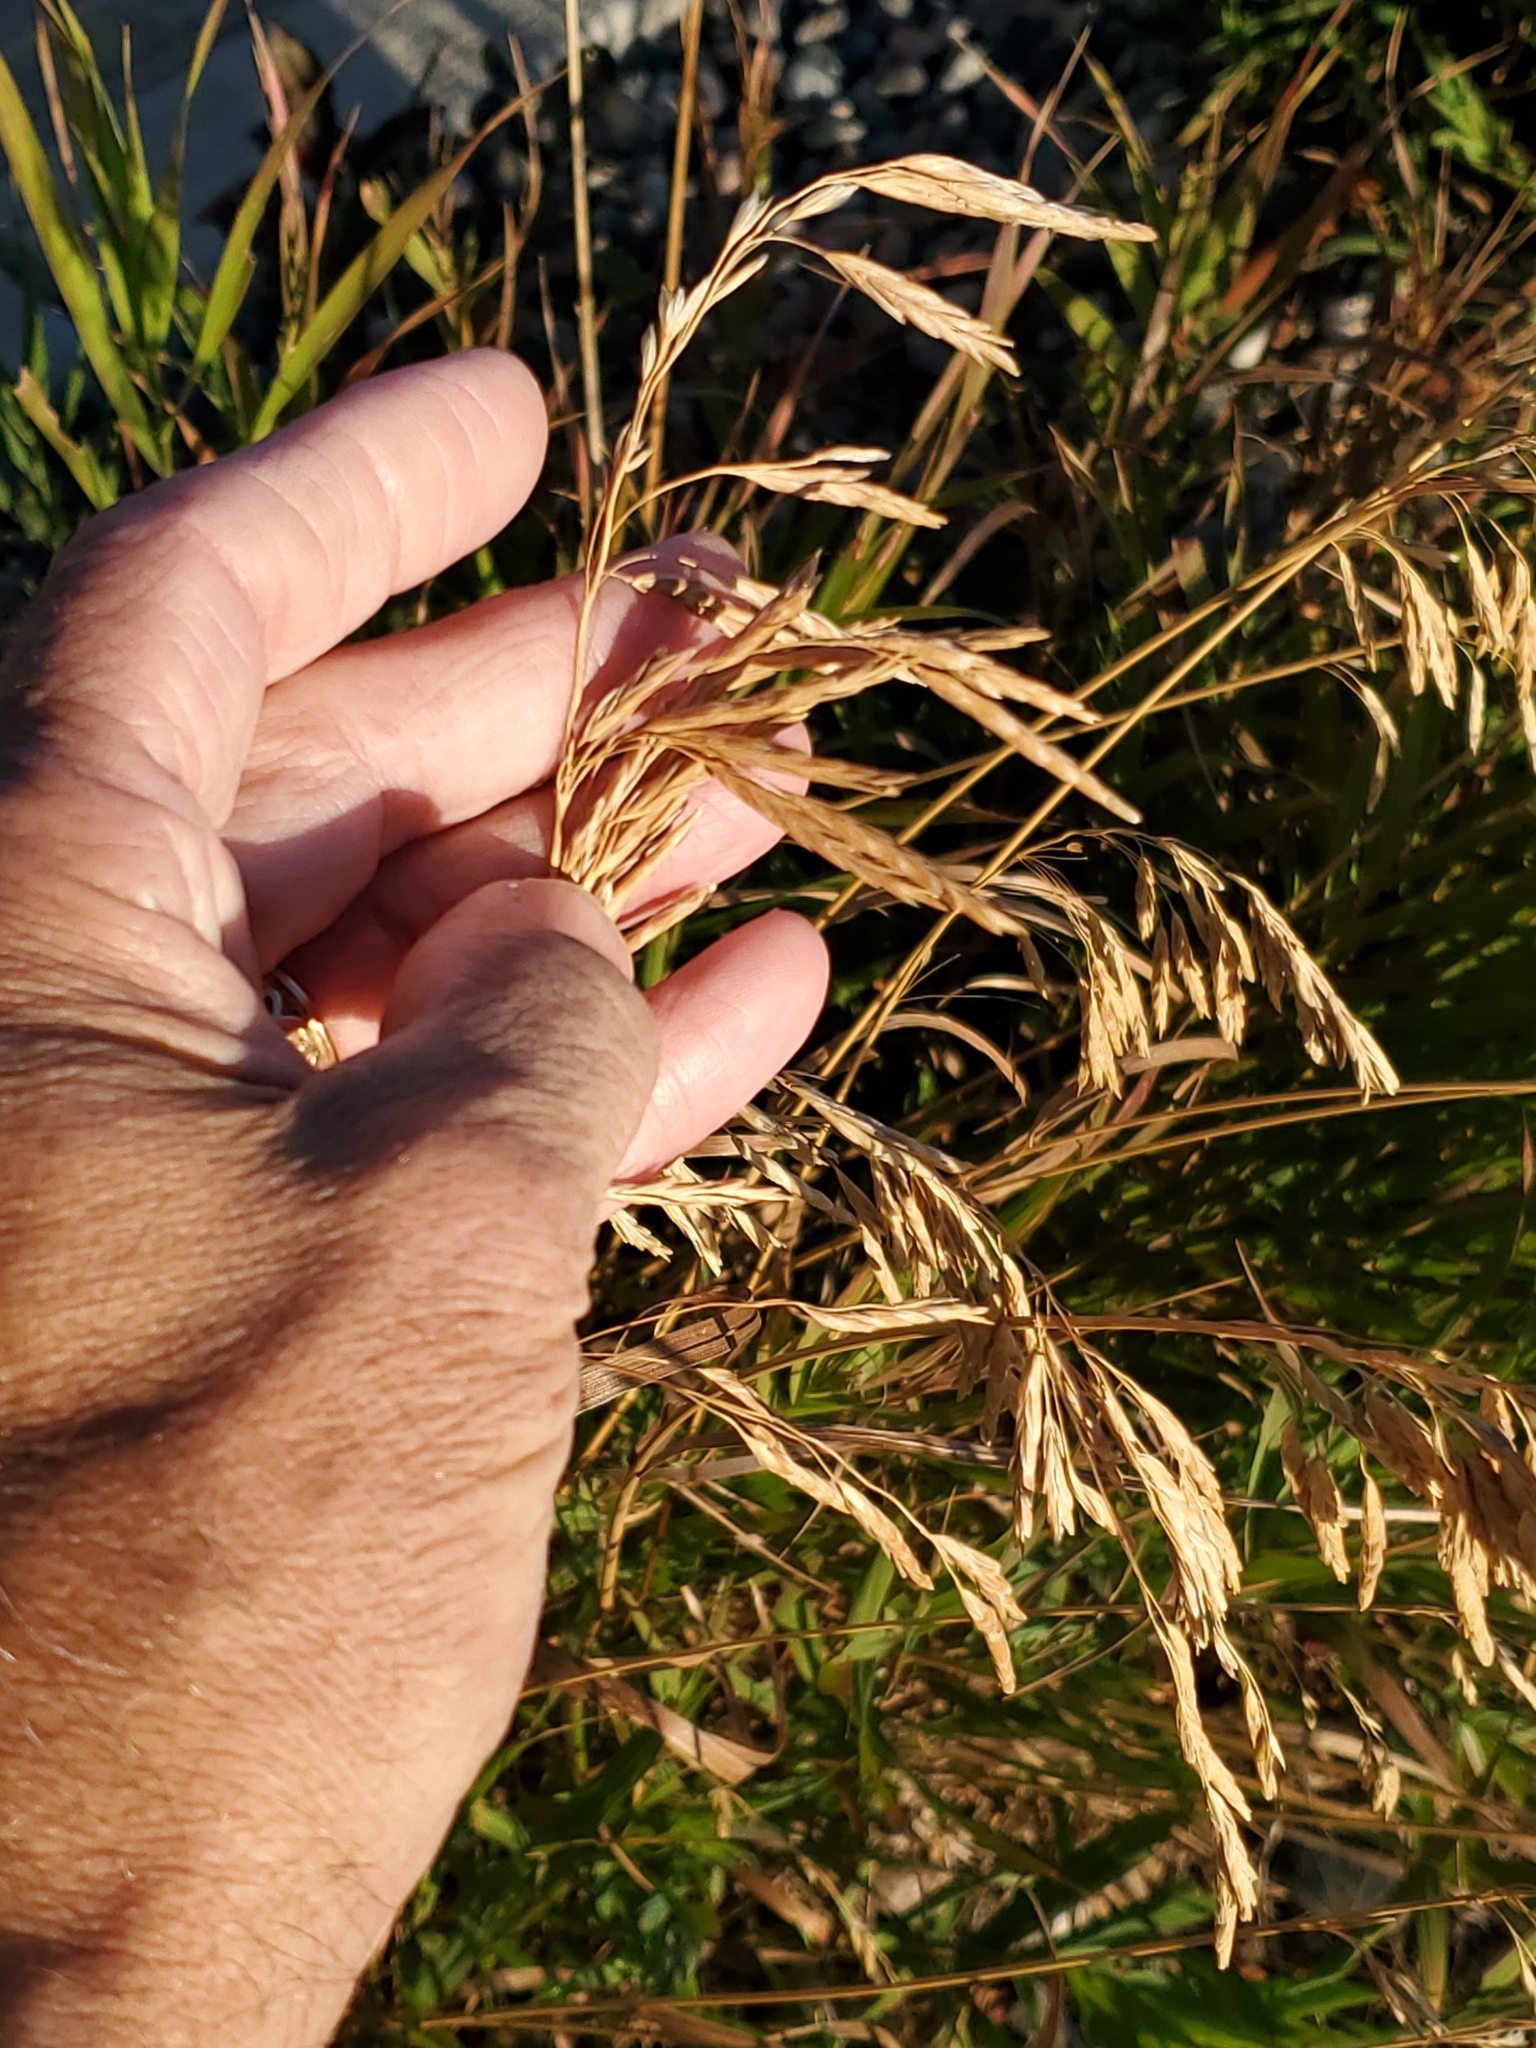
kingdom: Plantae
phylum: Tracheophyta
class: Liliopsida
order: Poales
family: Poaceae
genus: Bromus
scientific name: Bromus inermis
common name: Smooth brome
